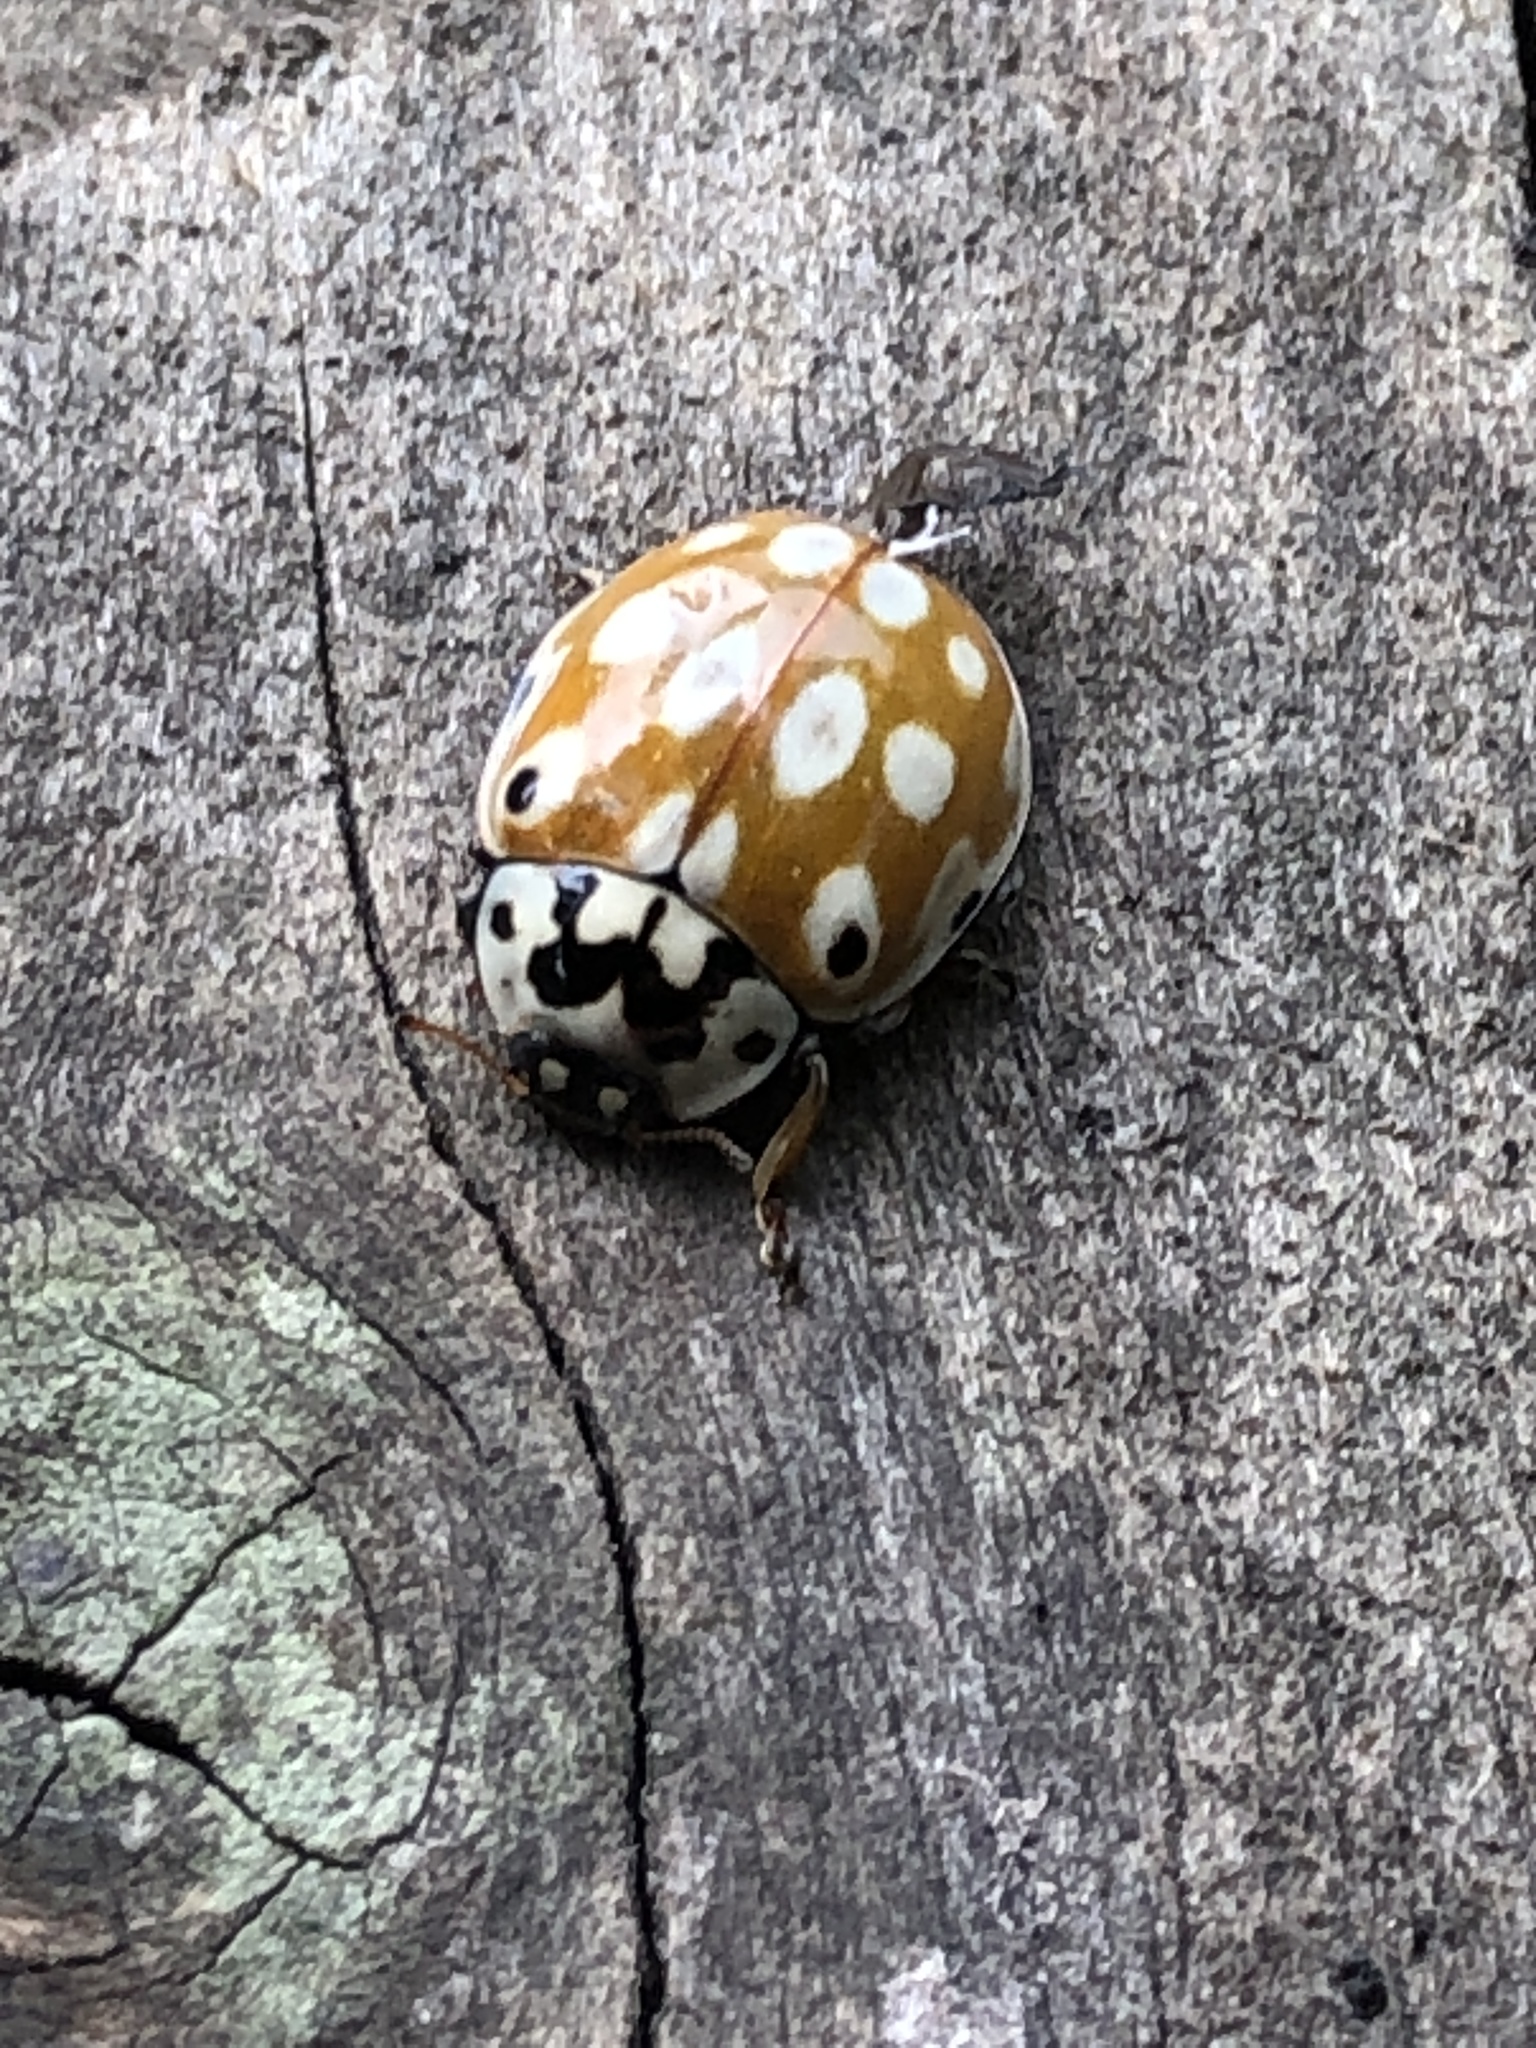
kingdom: Animalia
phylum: Arthropoda
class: Insecta
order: Coleoptera
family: Coccinellidae
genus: Anatis
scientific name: Anatis halonis
